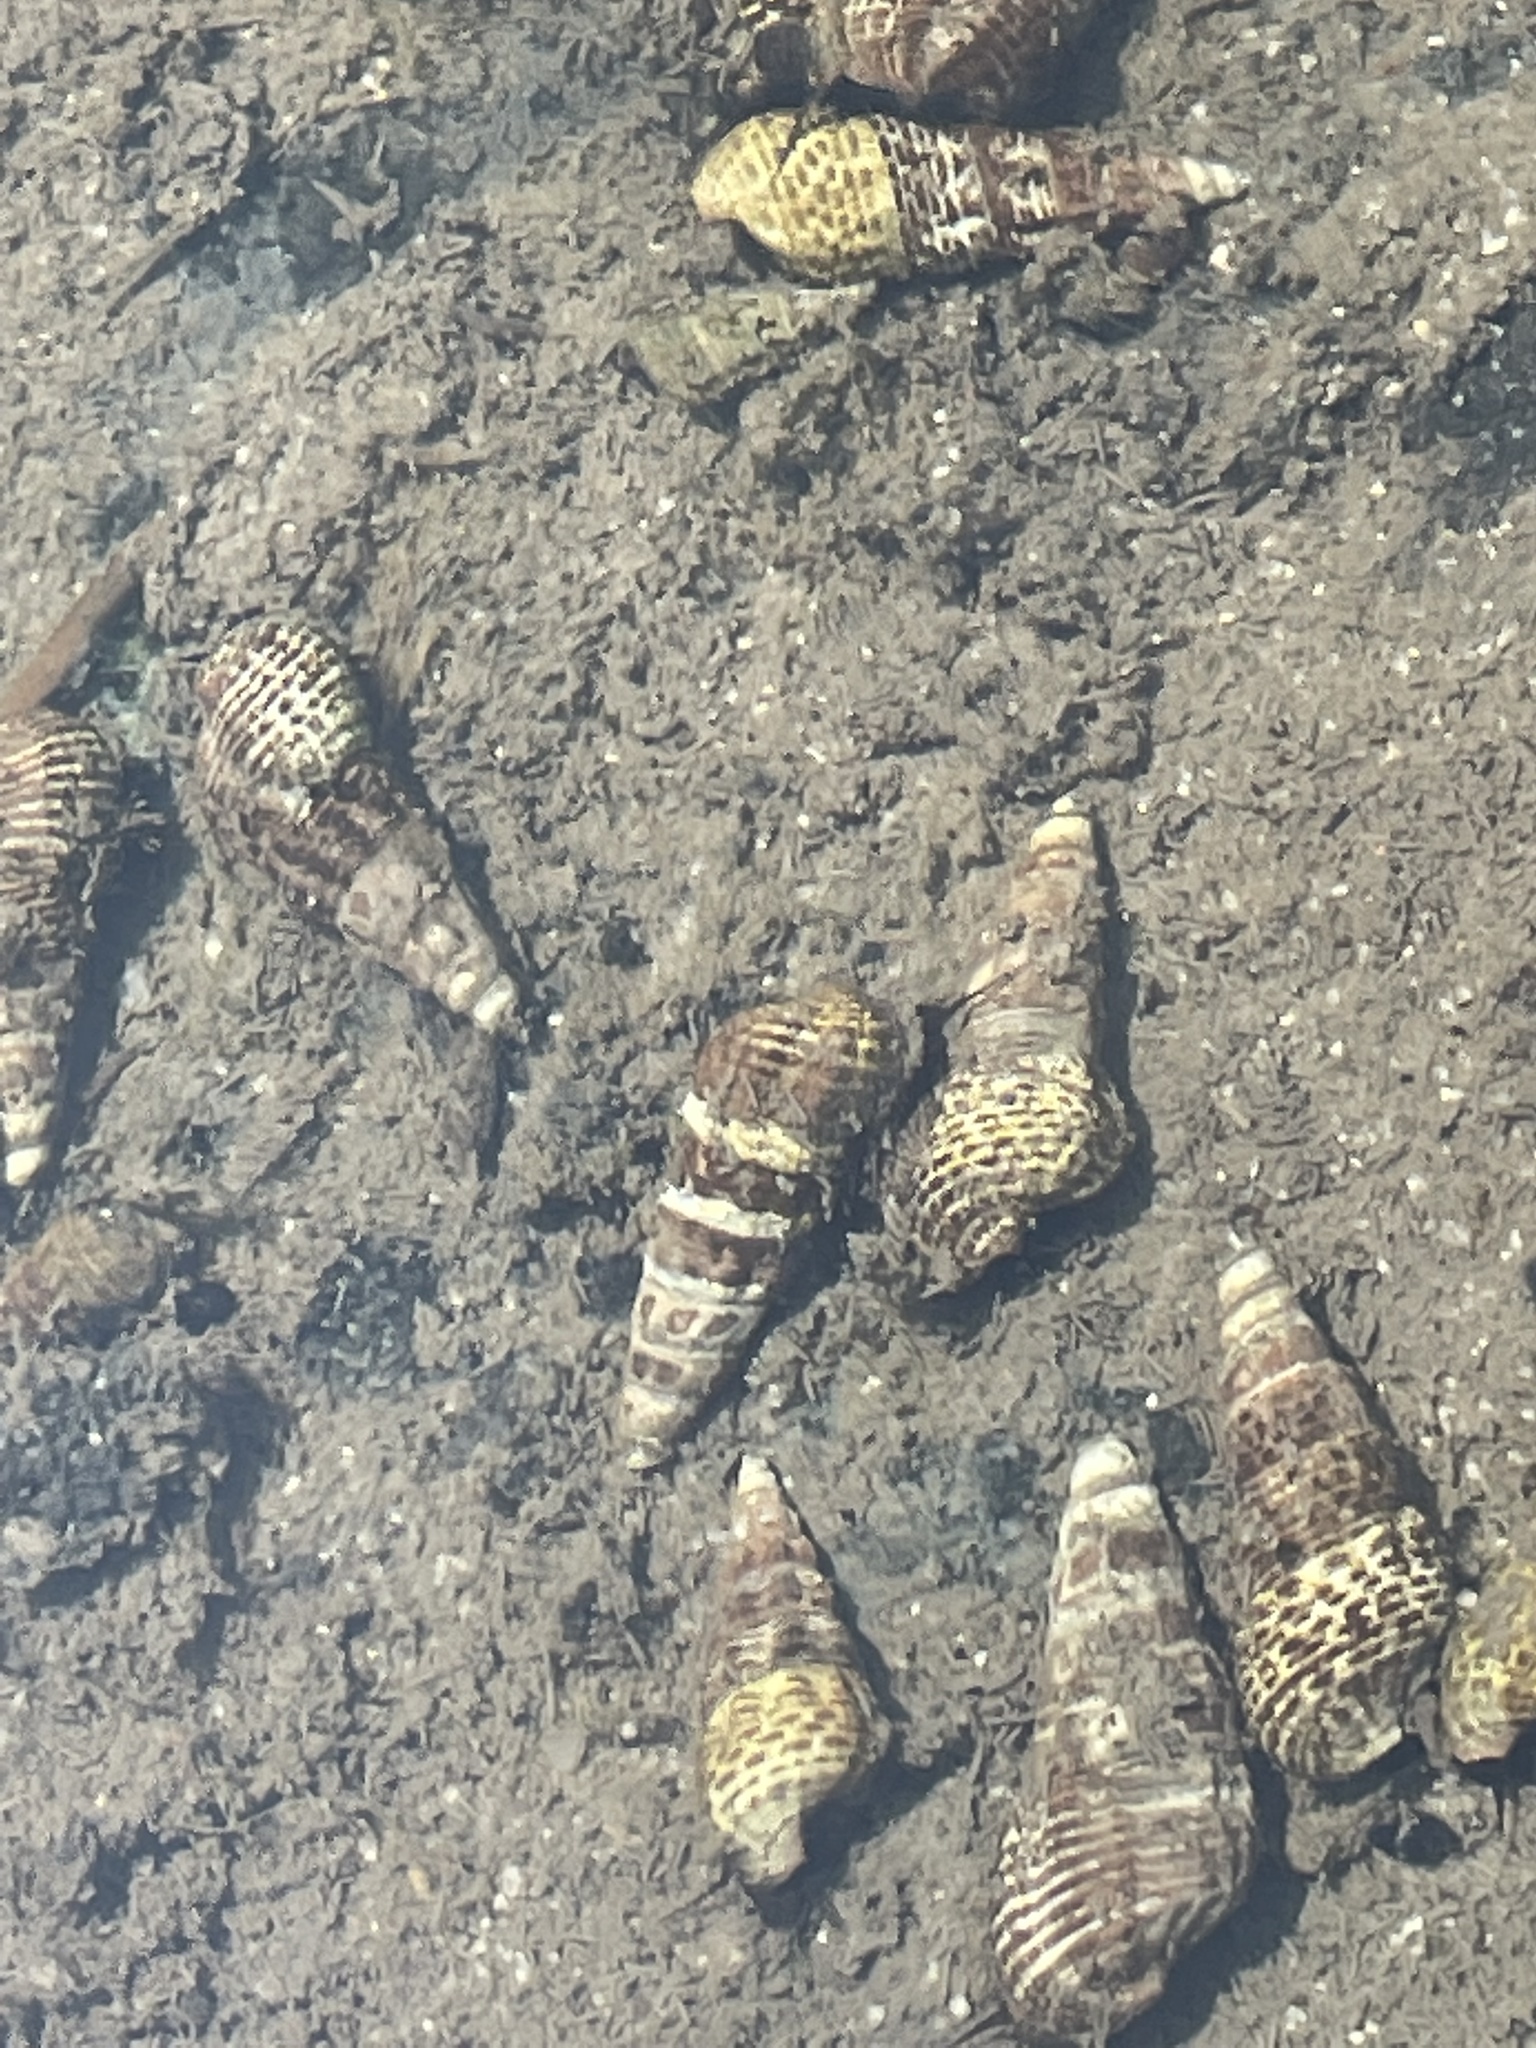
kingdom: Animalia
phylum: Mollusca
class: Gastropoda
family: Batillariidae
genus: Batillaria
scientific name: Batillaria attramentaria
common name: Japanese false cerith
